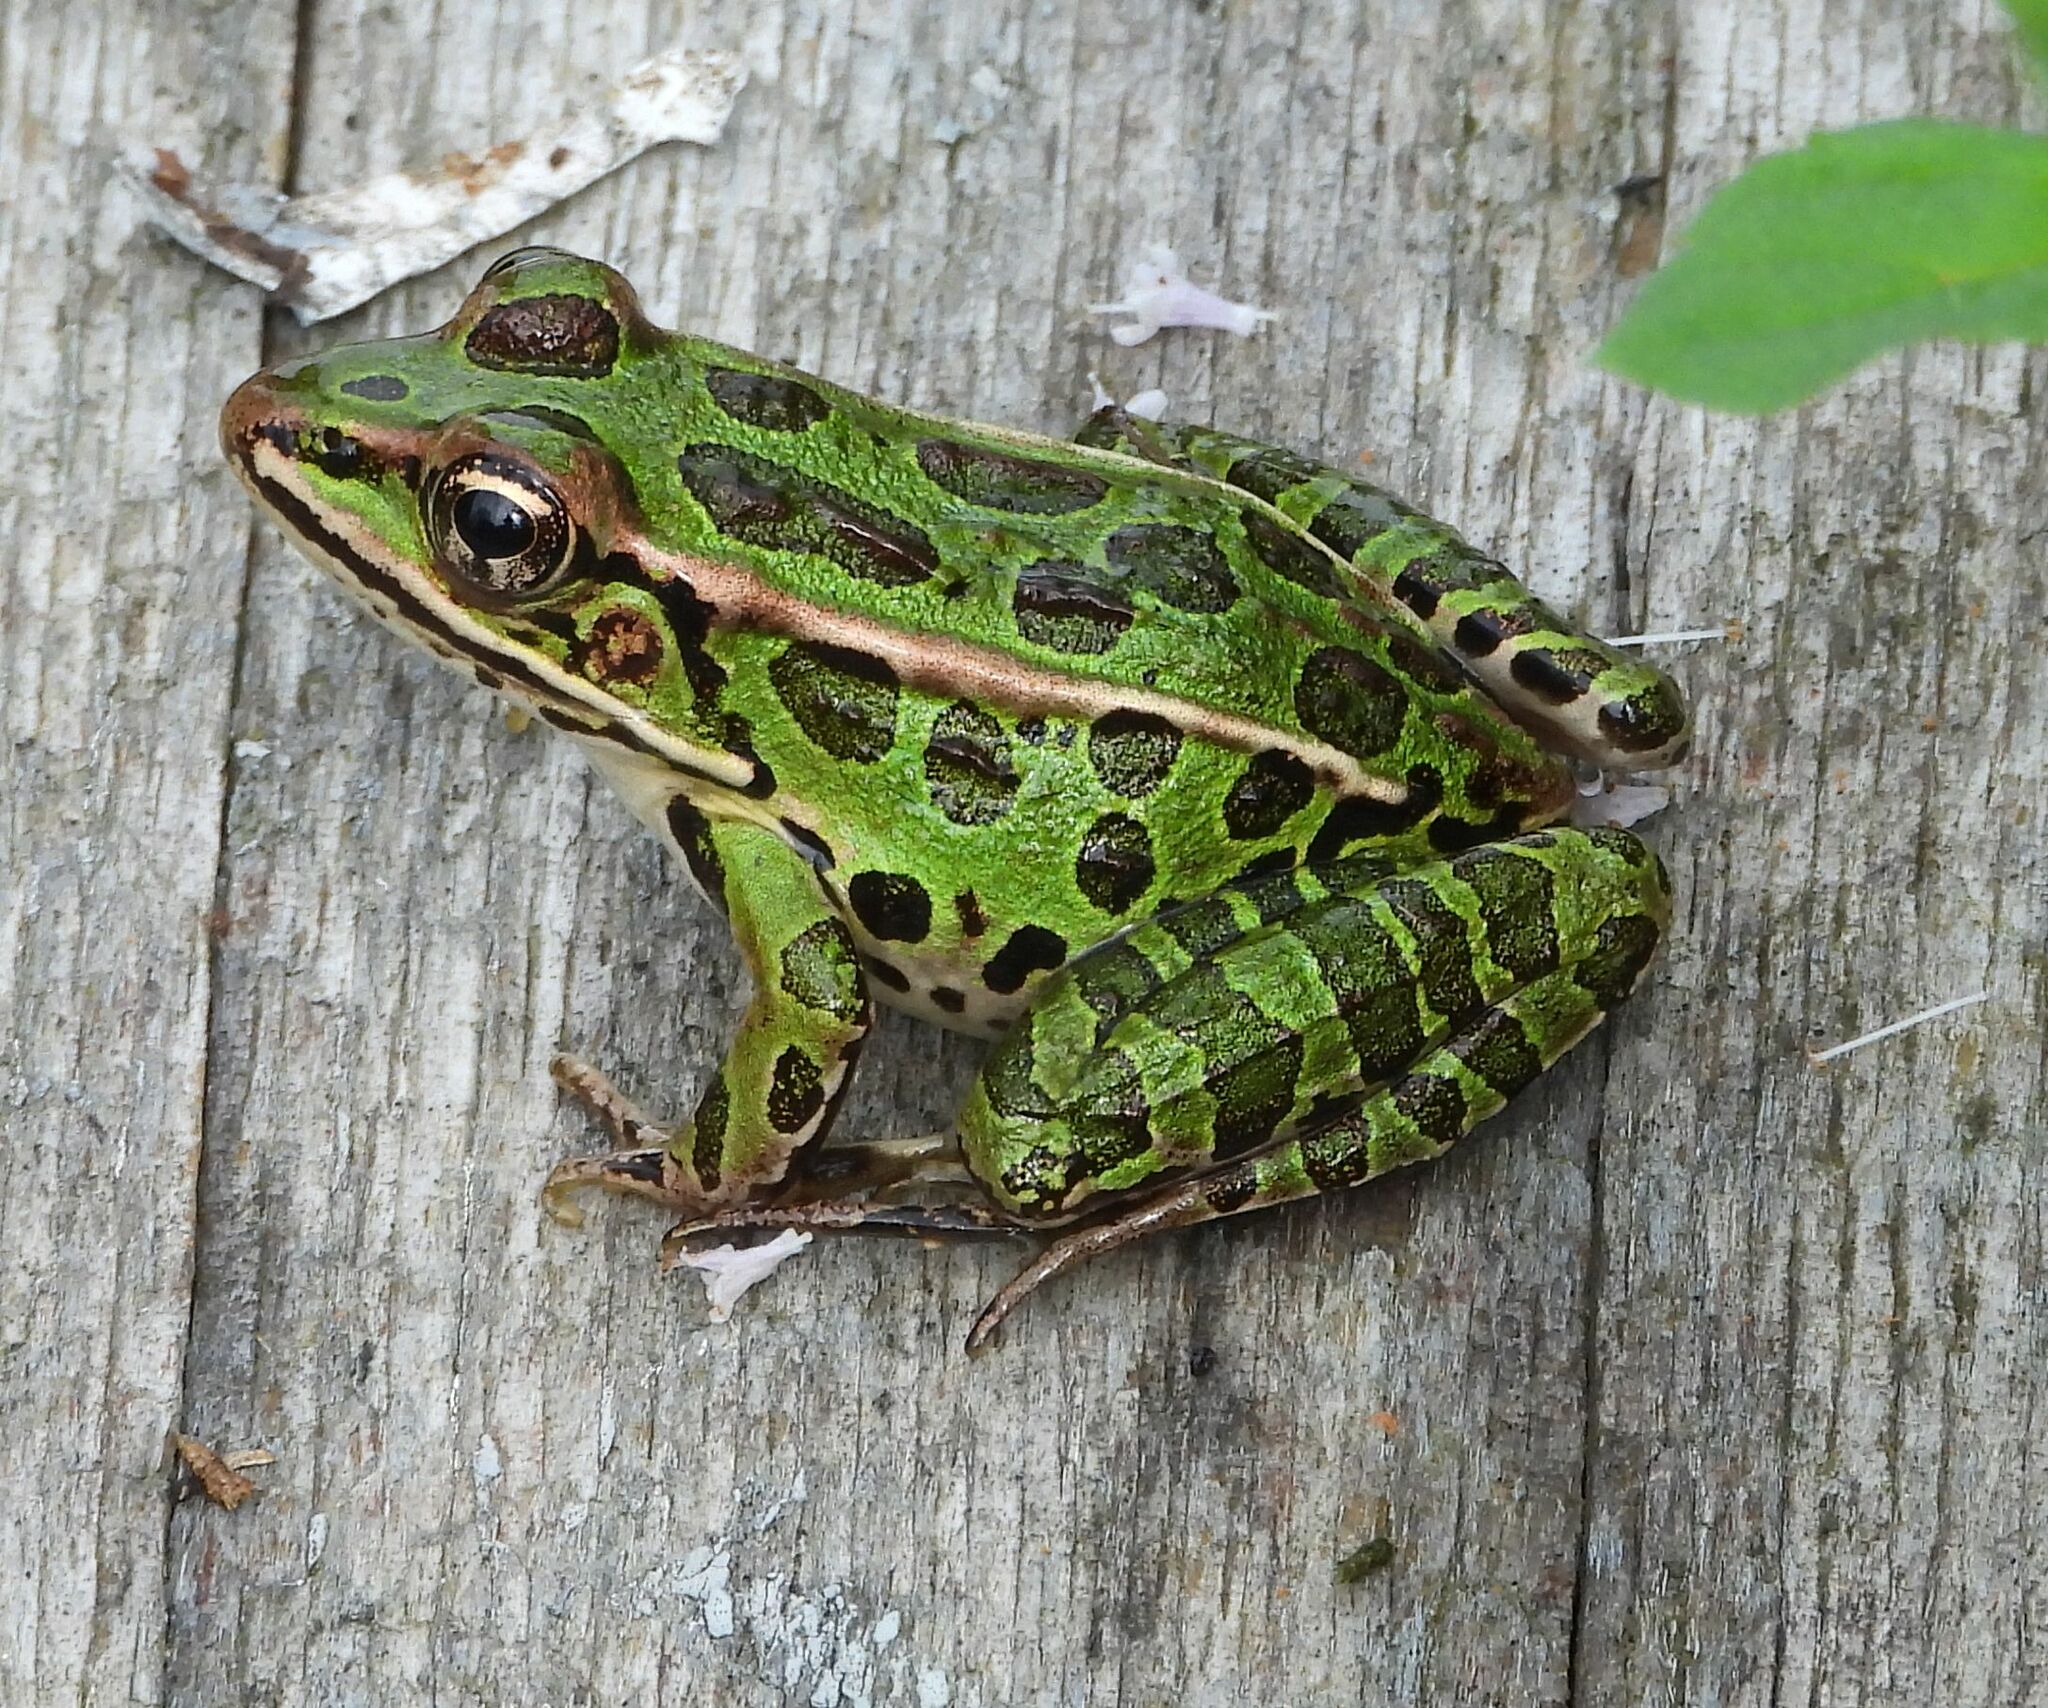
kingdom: Animalia
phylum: Chordata
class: Amphibia
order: Anura
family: Ranidae
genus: Lithobates
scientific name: Lithobates pipiens
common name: Northern leopard frog
